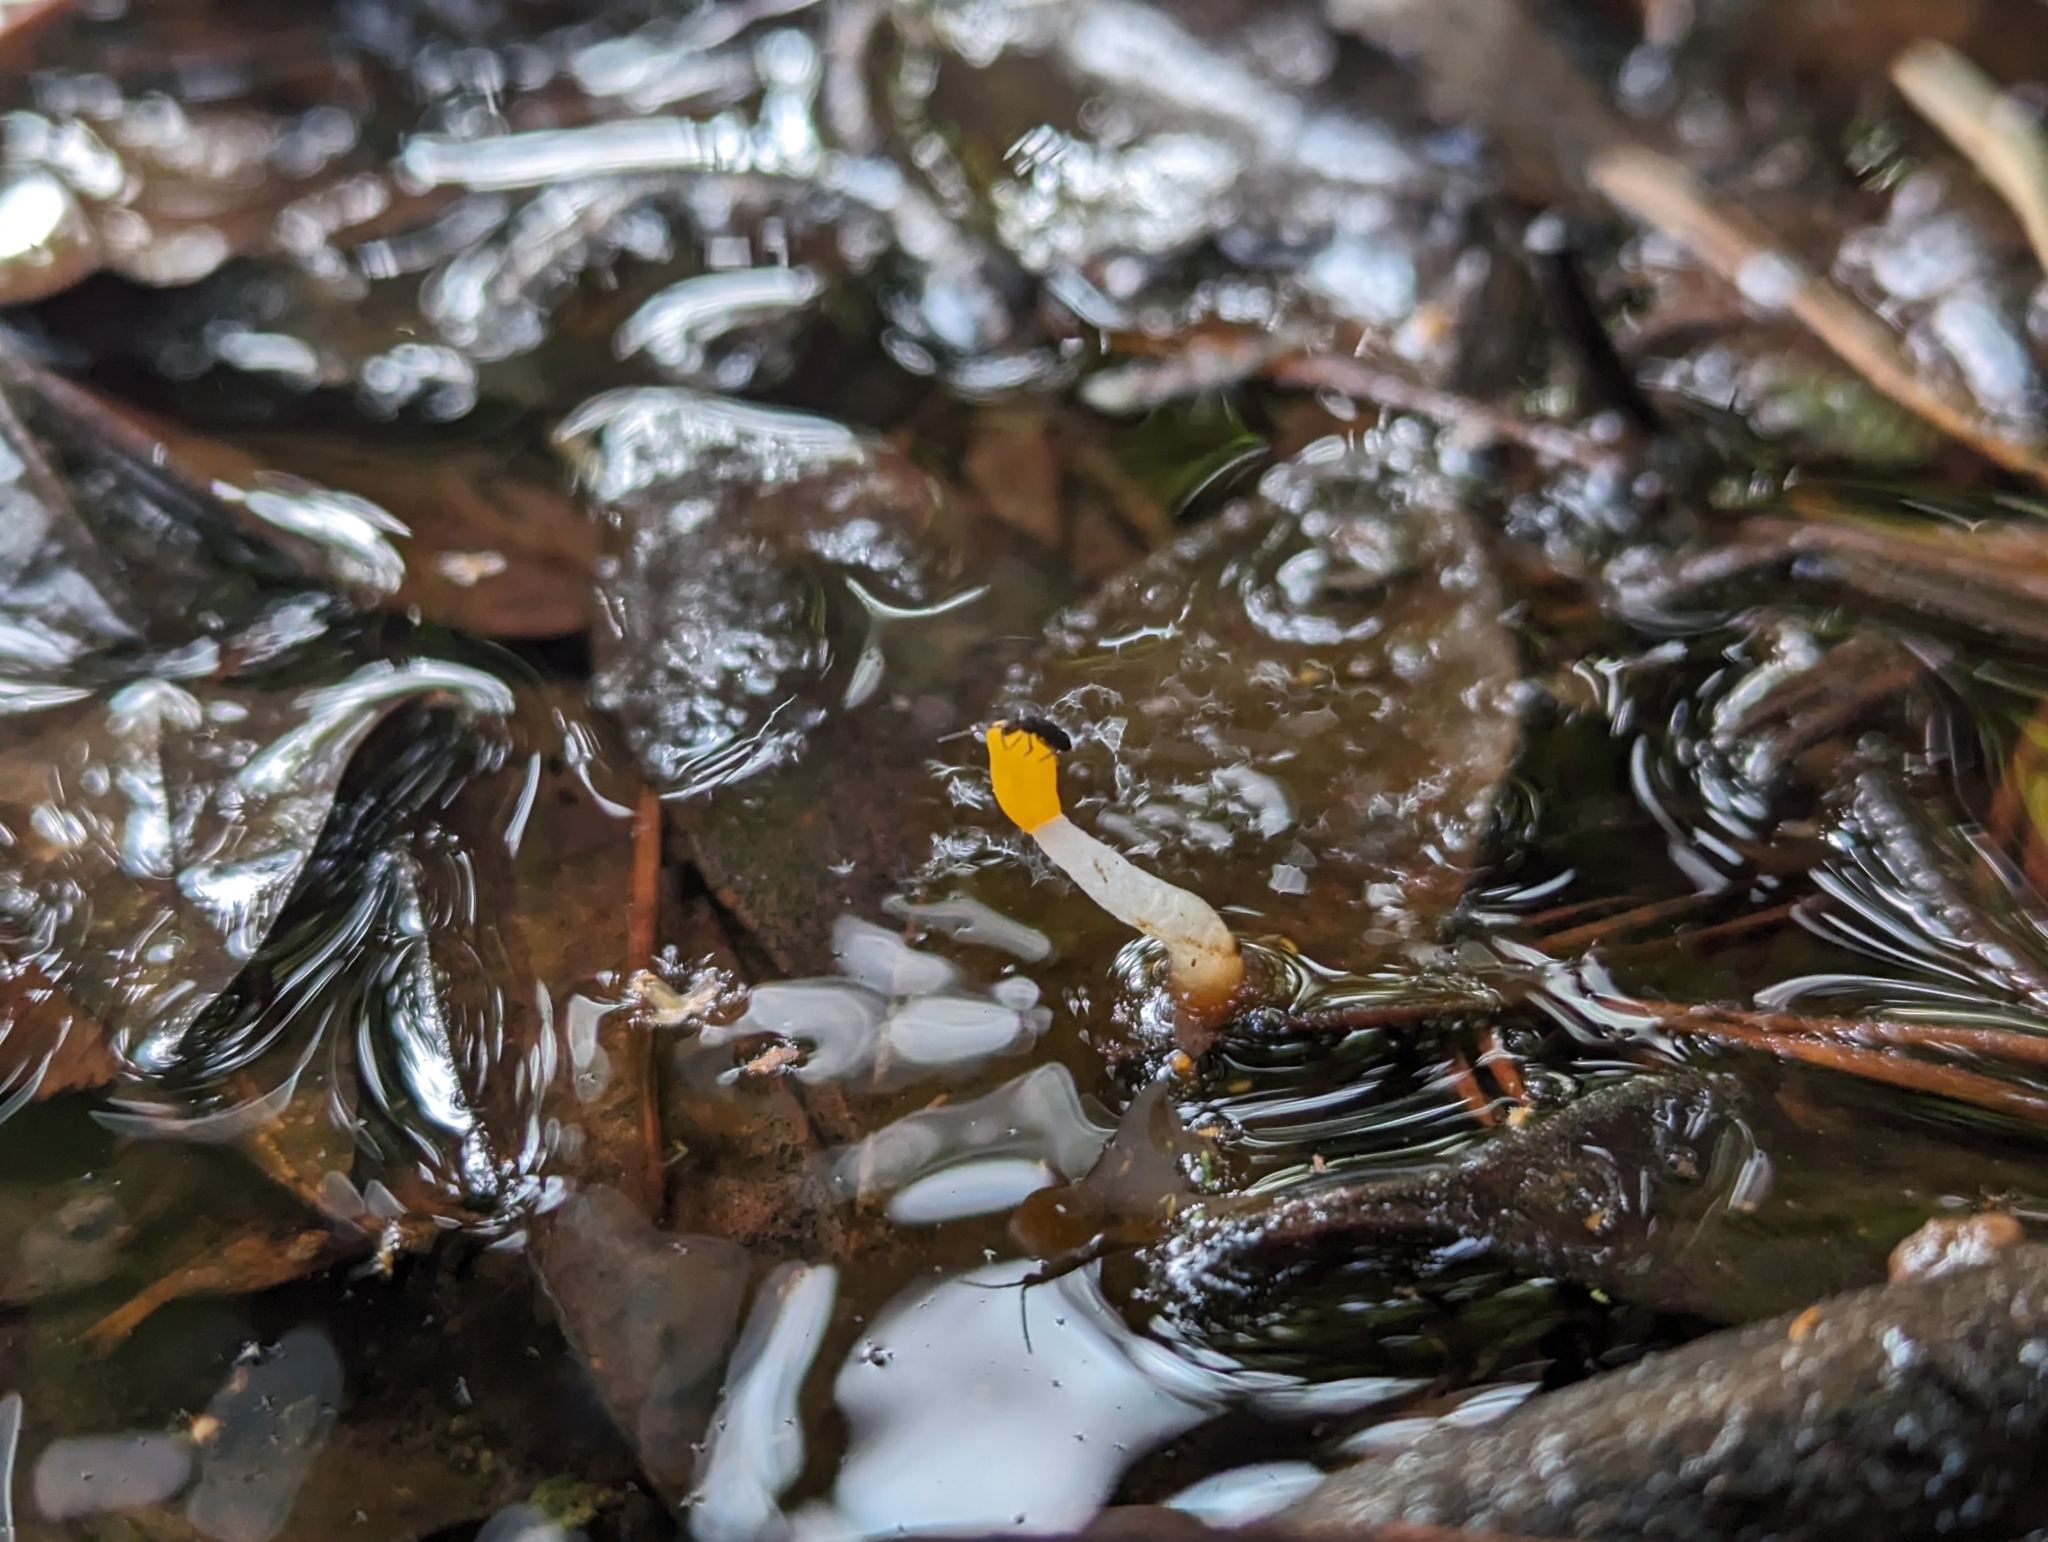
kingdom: Fungi
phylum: Ascomycota
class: Leotiomycetes
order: Helotiales
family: Cenangiaceae
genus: Mitrula
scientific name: Mitrula paludosa
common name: Bog beacon
